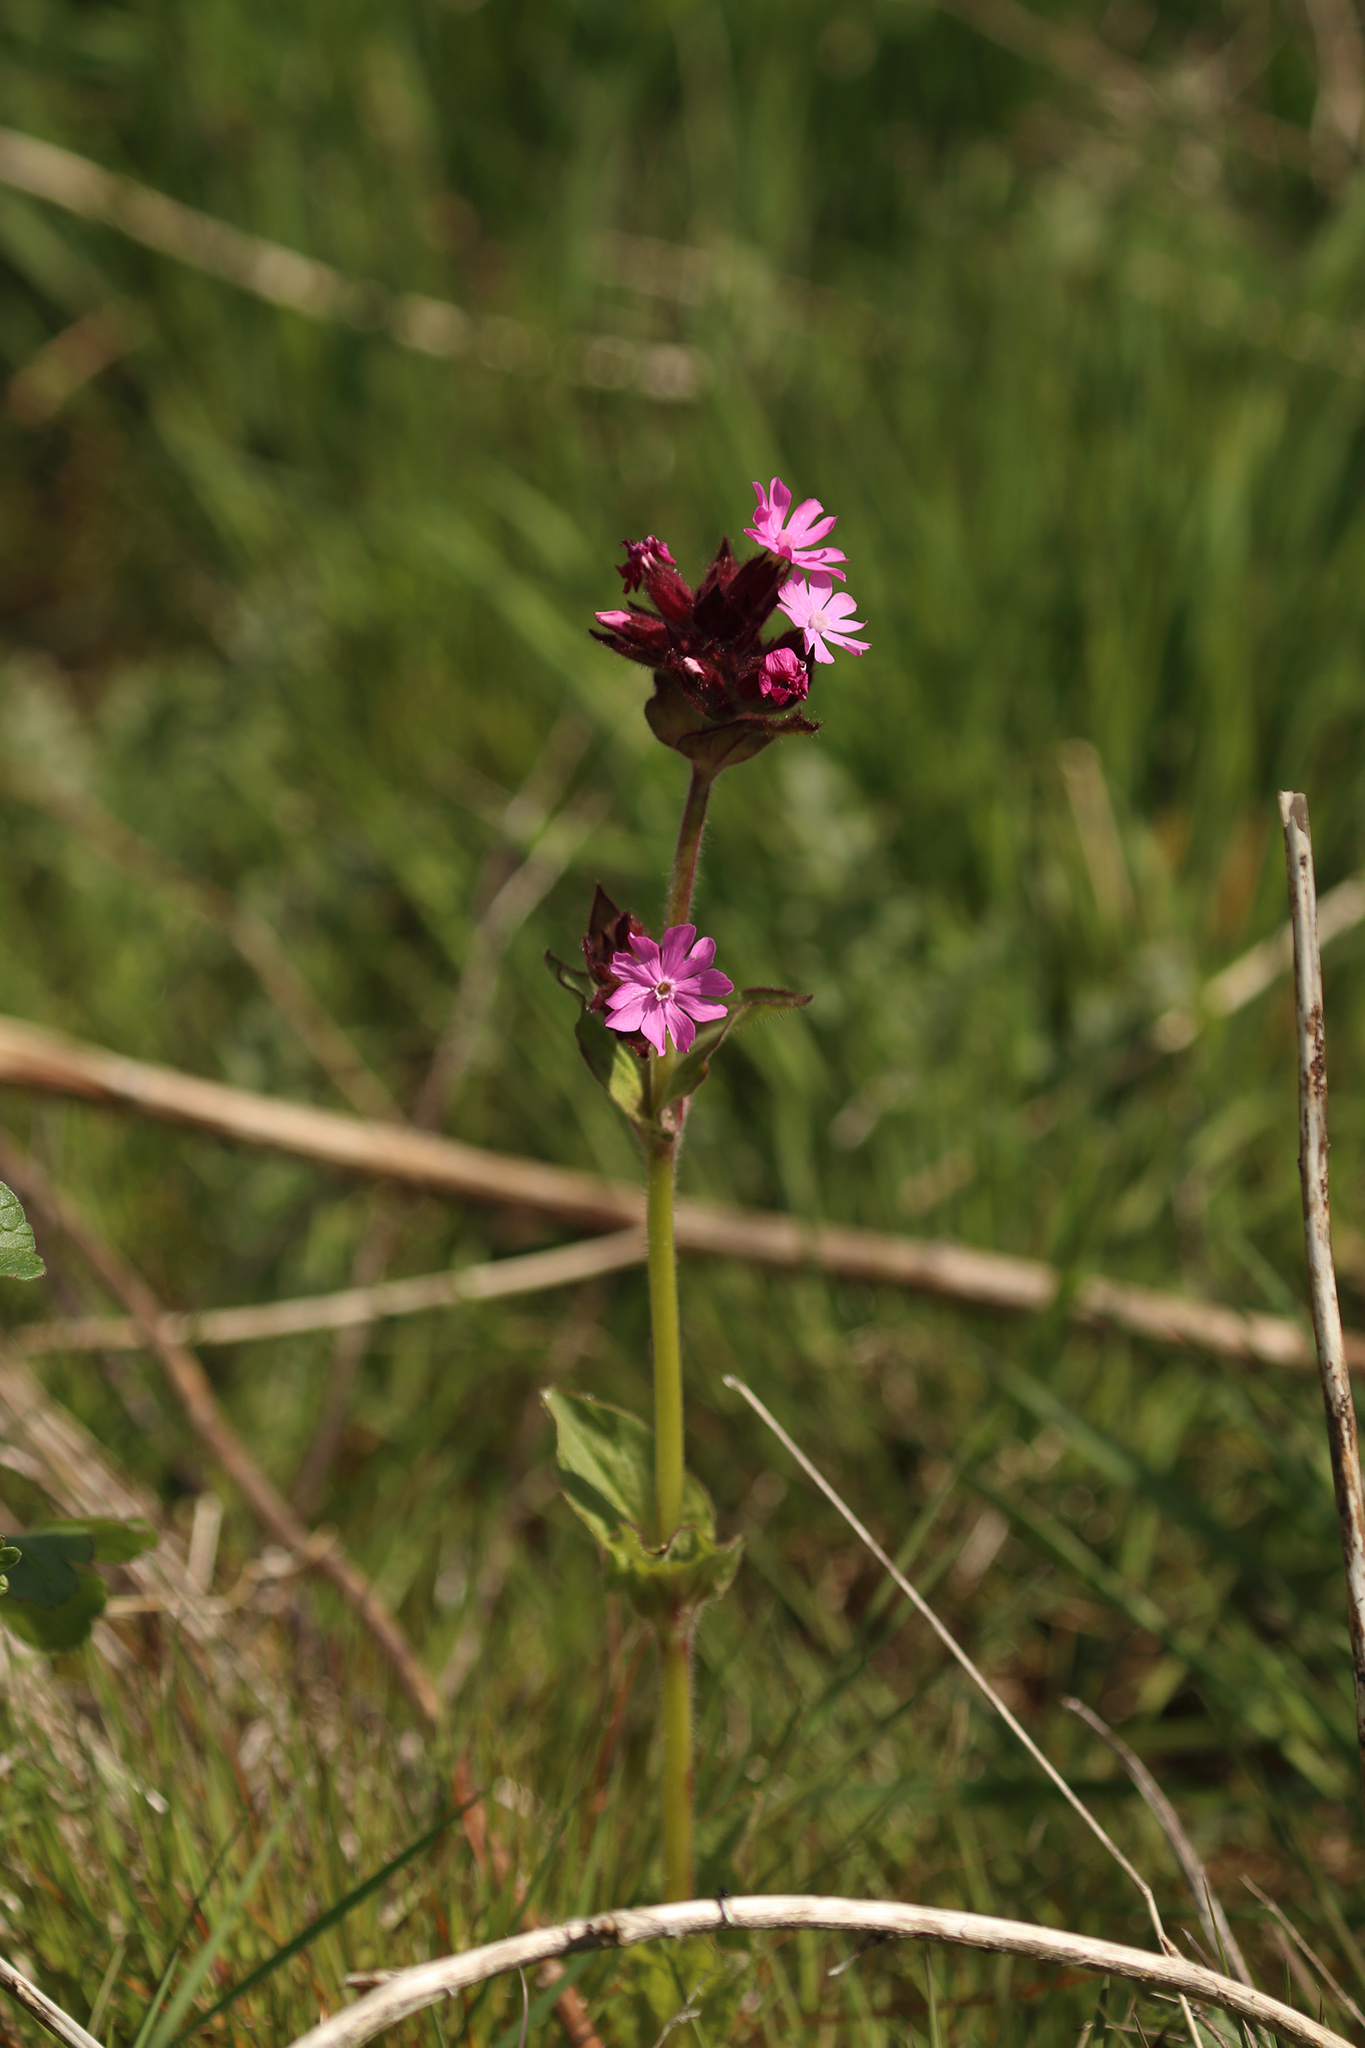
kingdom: Plantae
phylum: Tracheophyta
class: Magnoliopsida
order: Caryophyllales
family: Caryophyllaceae
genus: Silene
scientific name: Silene dioica
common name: Red campion
